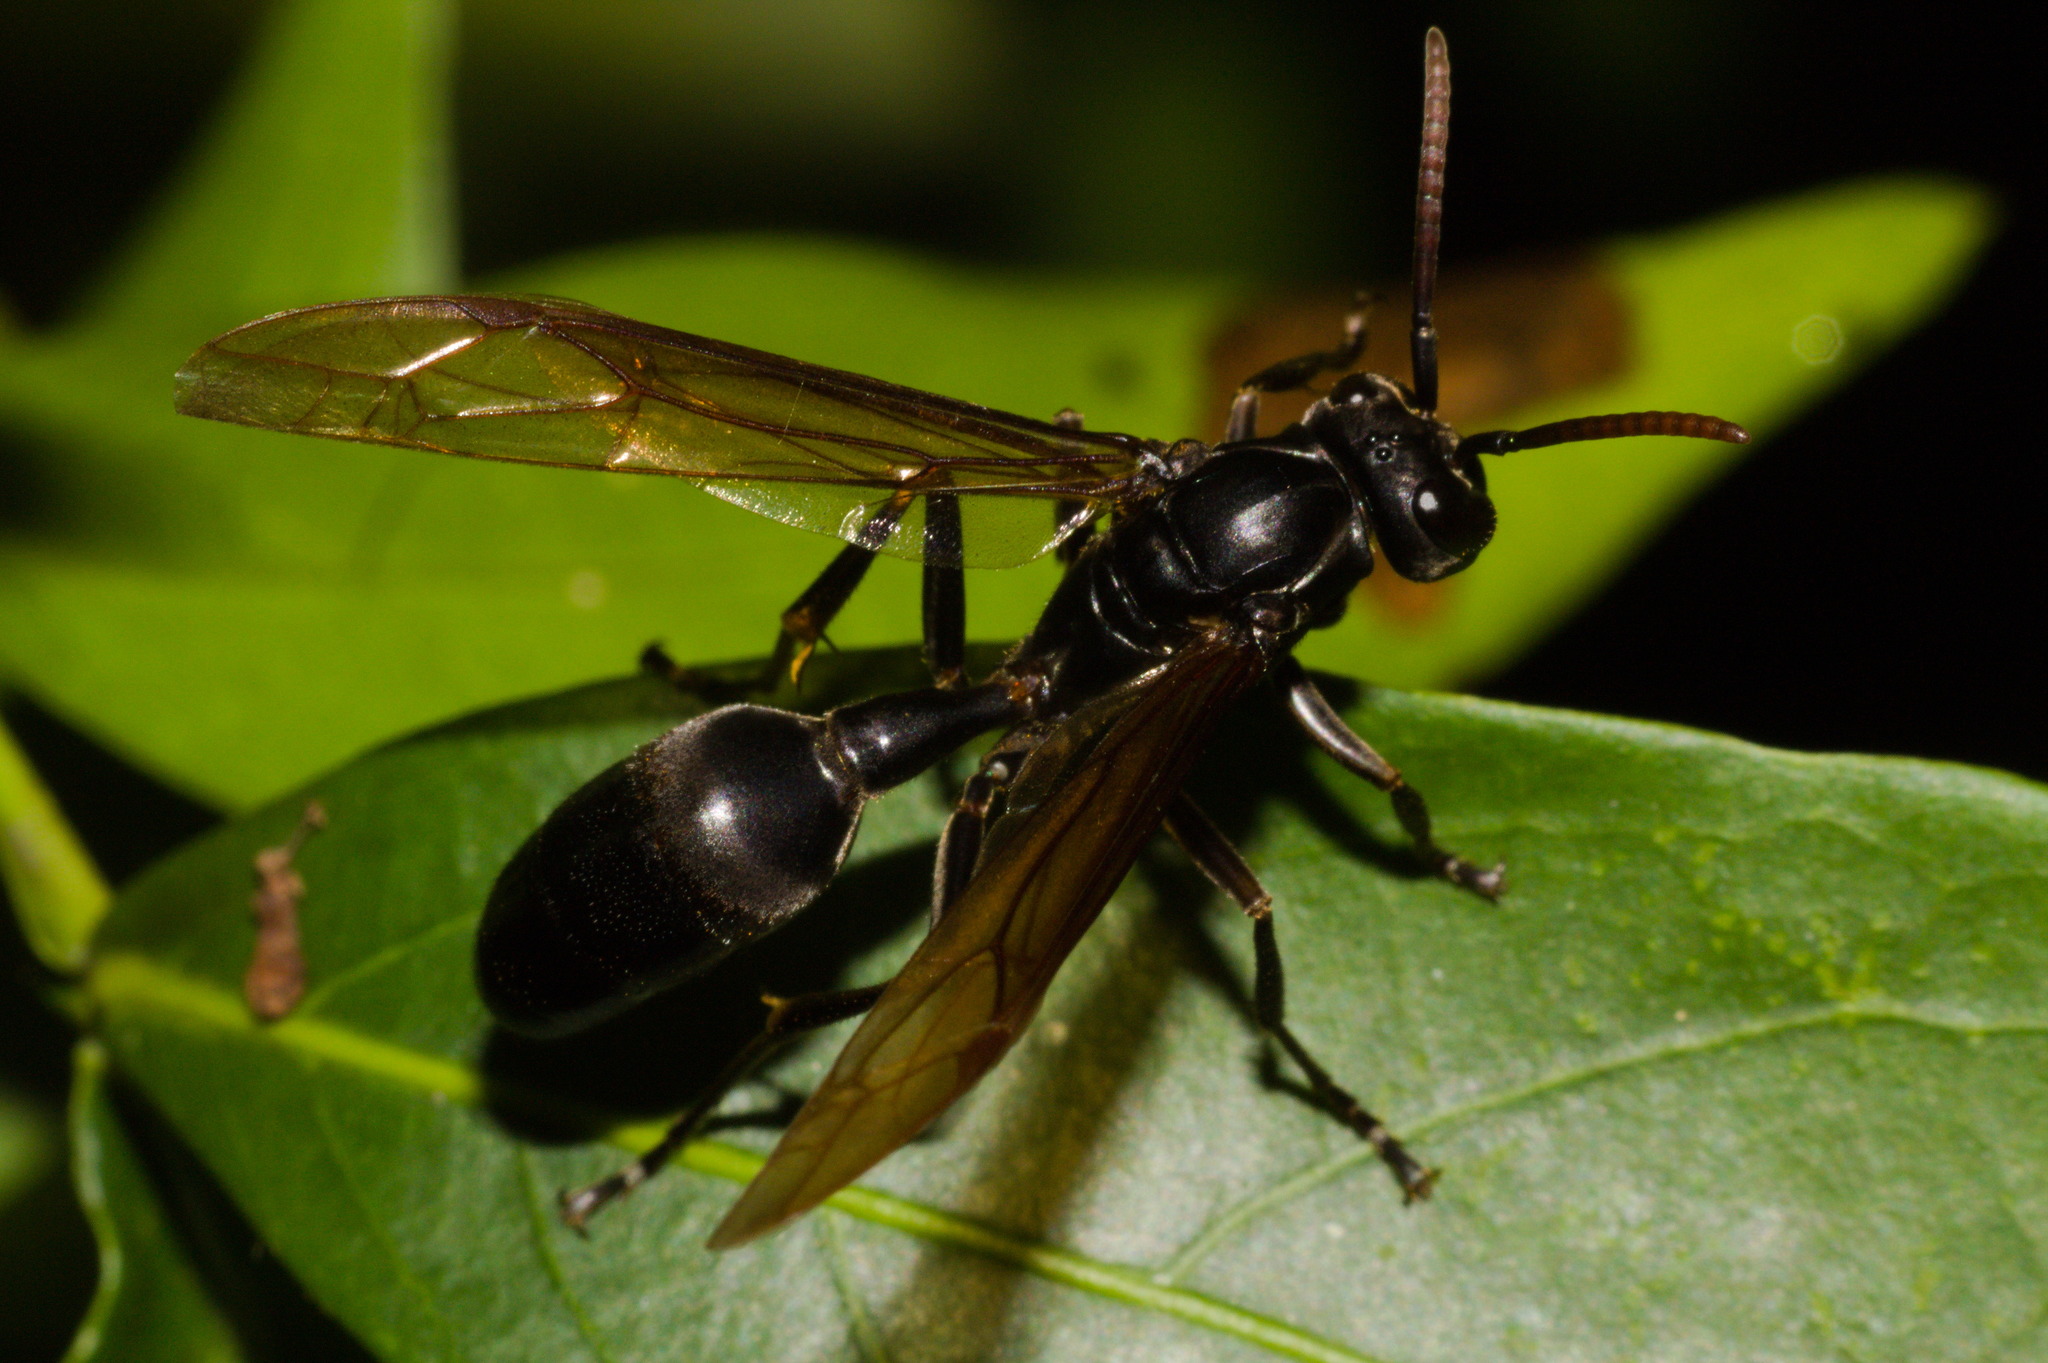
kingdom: Animalia
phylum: Arthropoda
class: Insecta
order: Hymenoptera
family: Vespidae
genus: Agelaia
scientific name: Agelaia angulata
